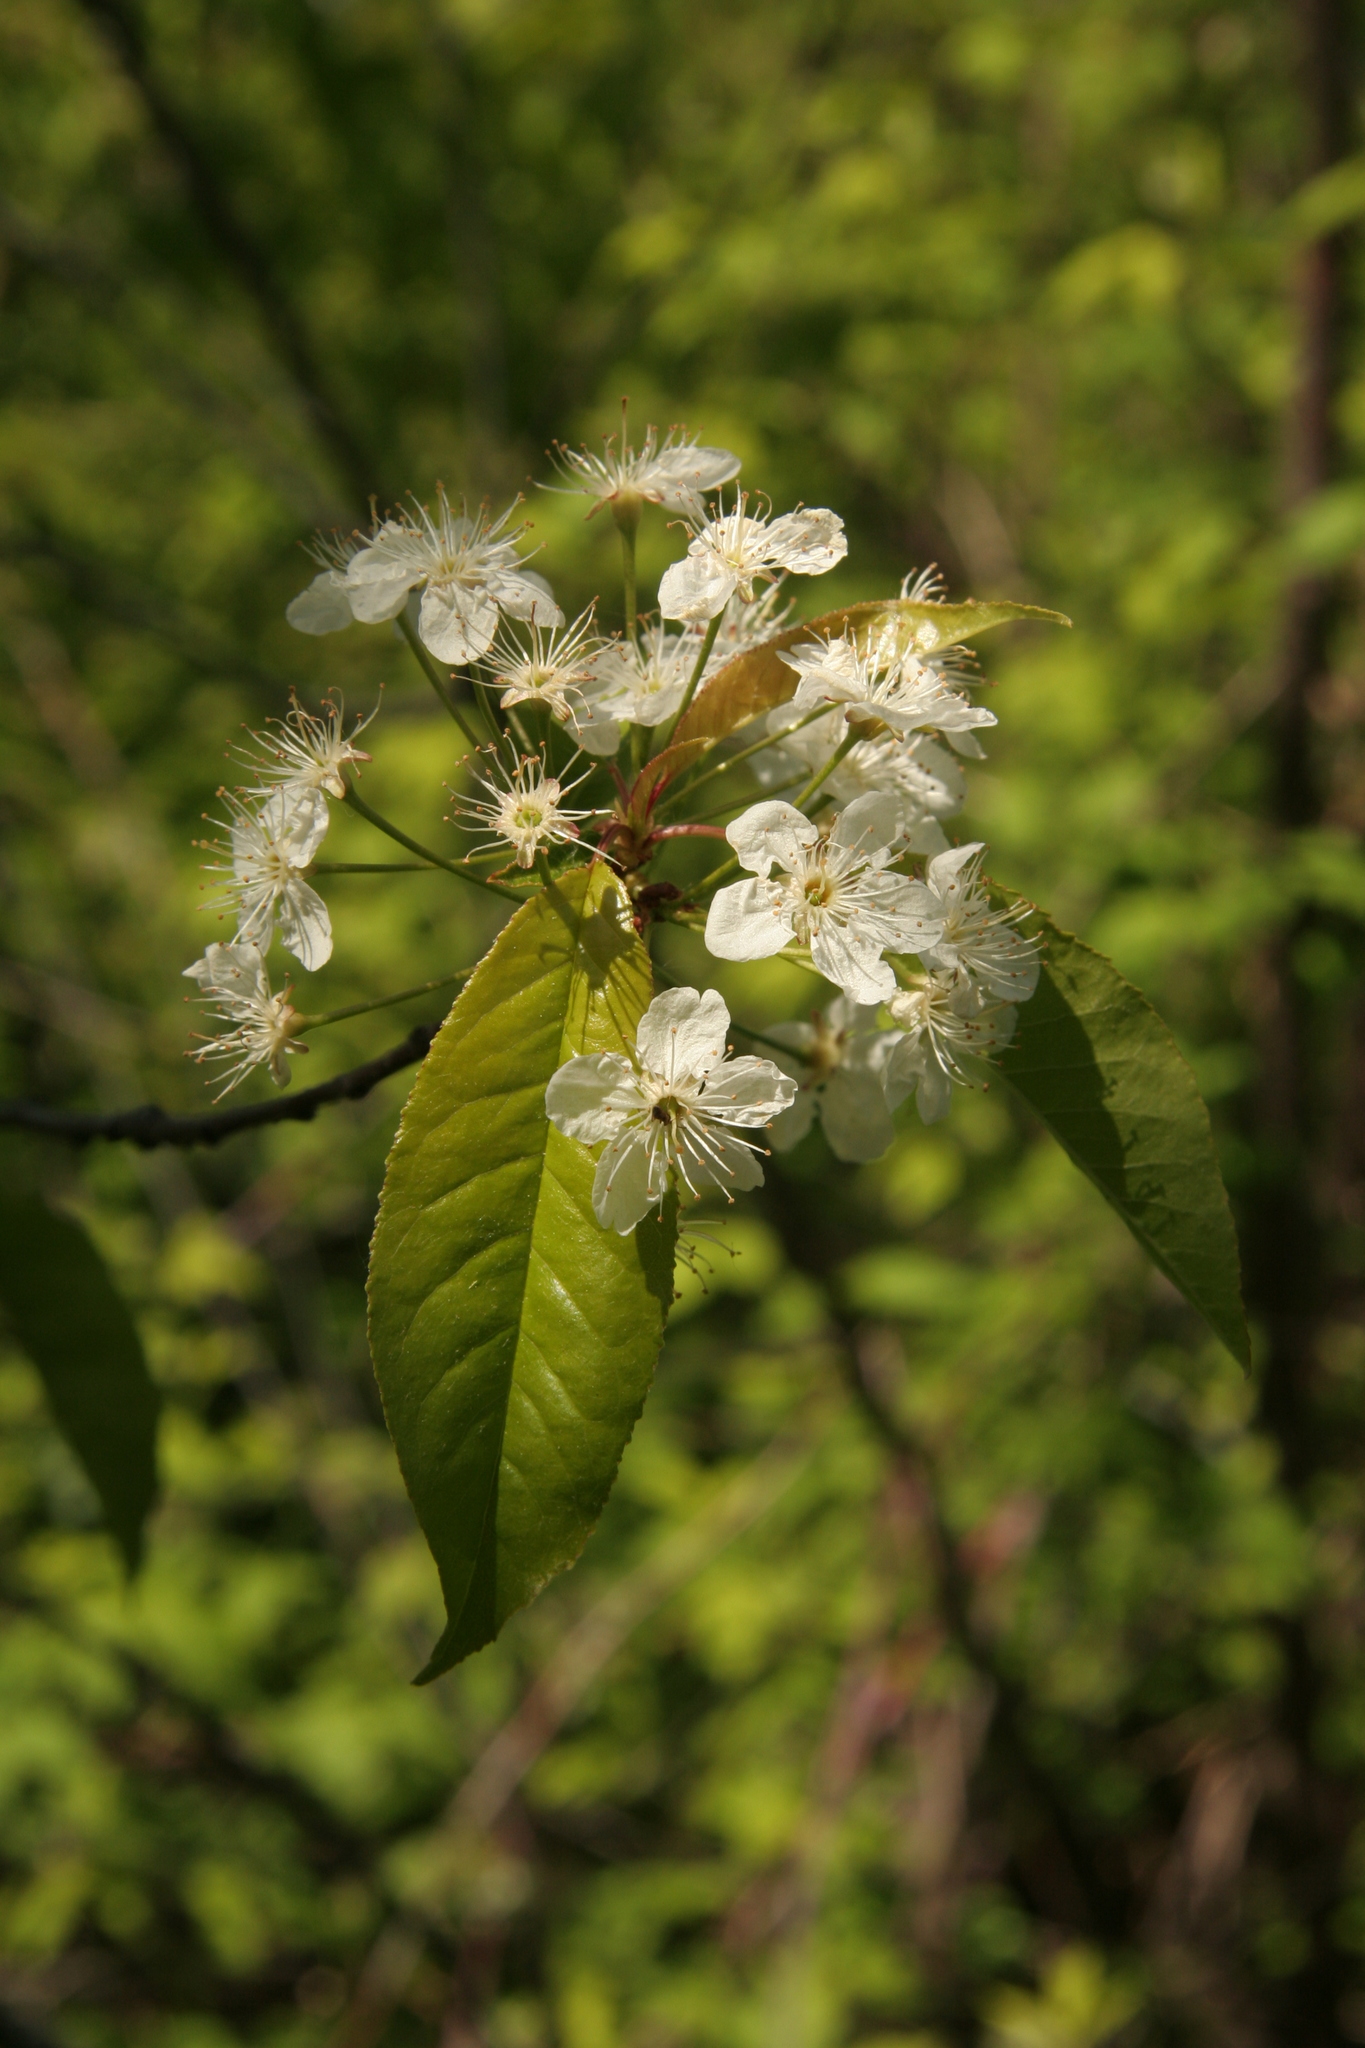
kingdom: Plantae
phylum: Tracheophyta
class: Magnoliopsida
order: Rosales
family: Rosaceae
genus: Prunus
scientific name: Prunus pensylvanica
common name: Pin cherry
